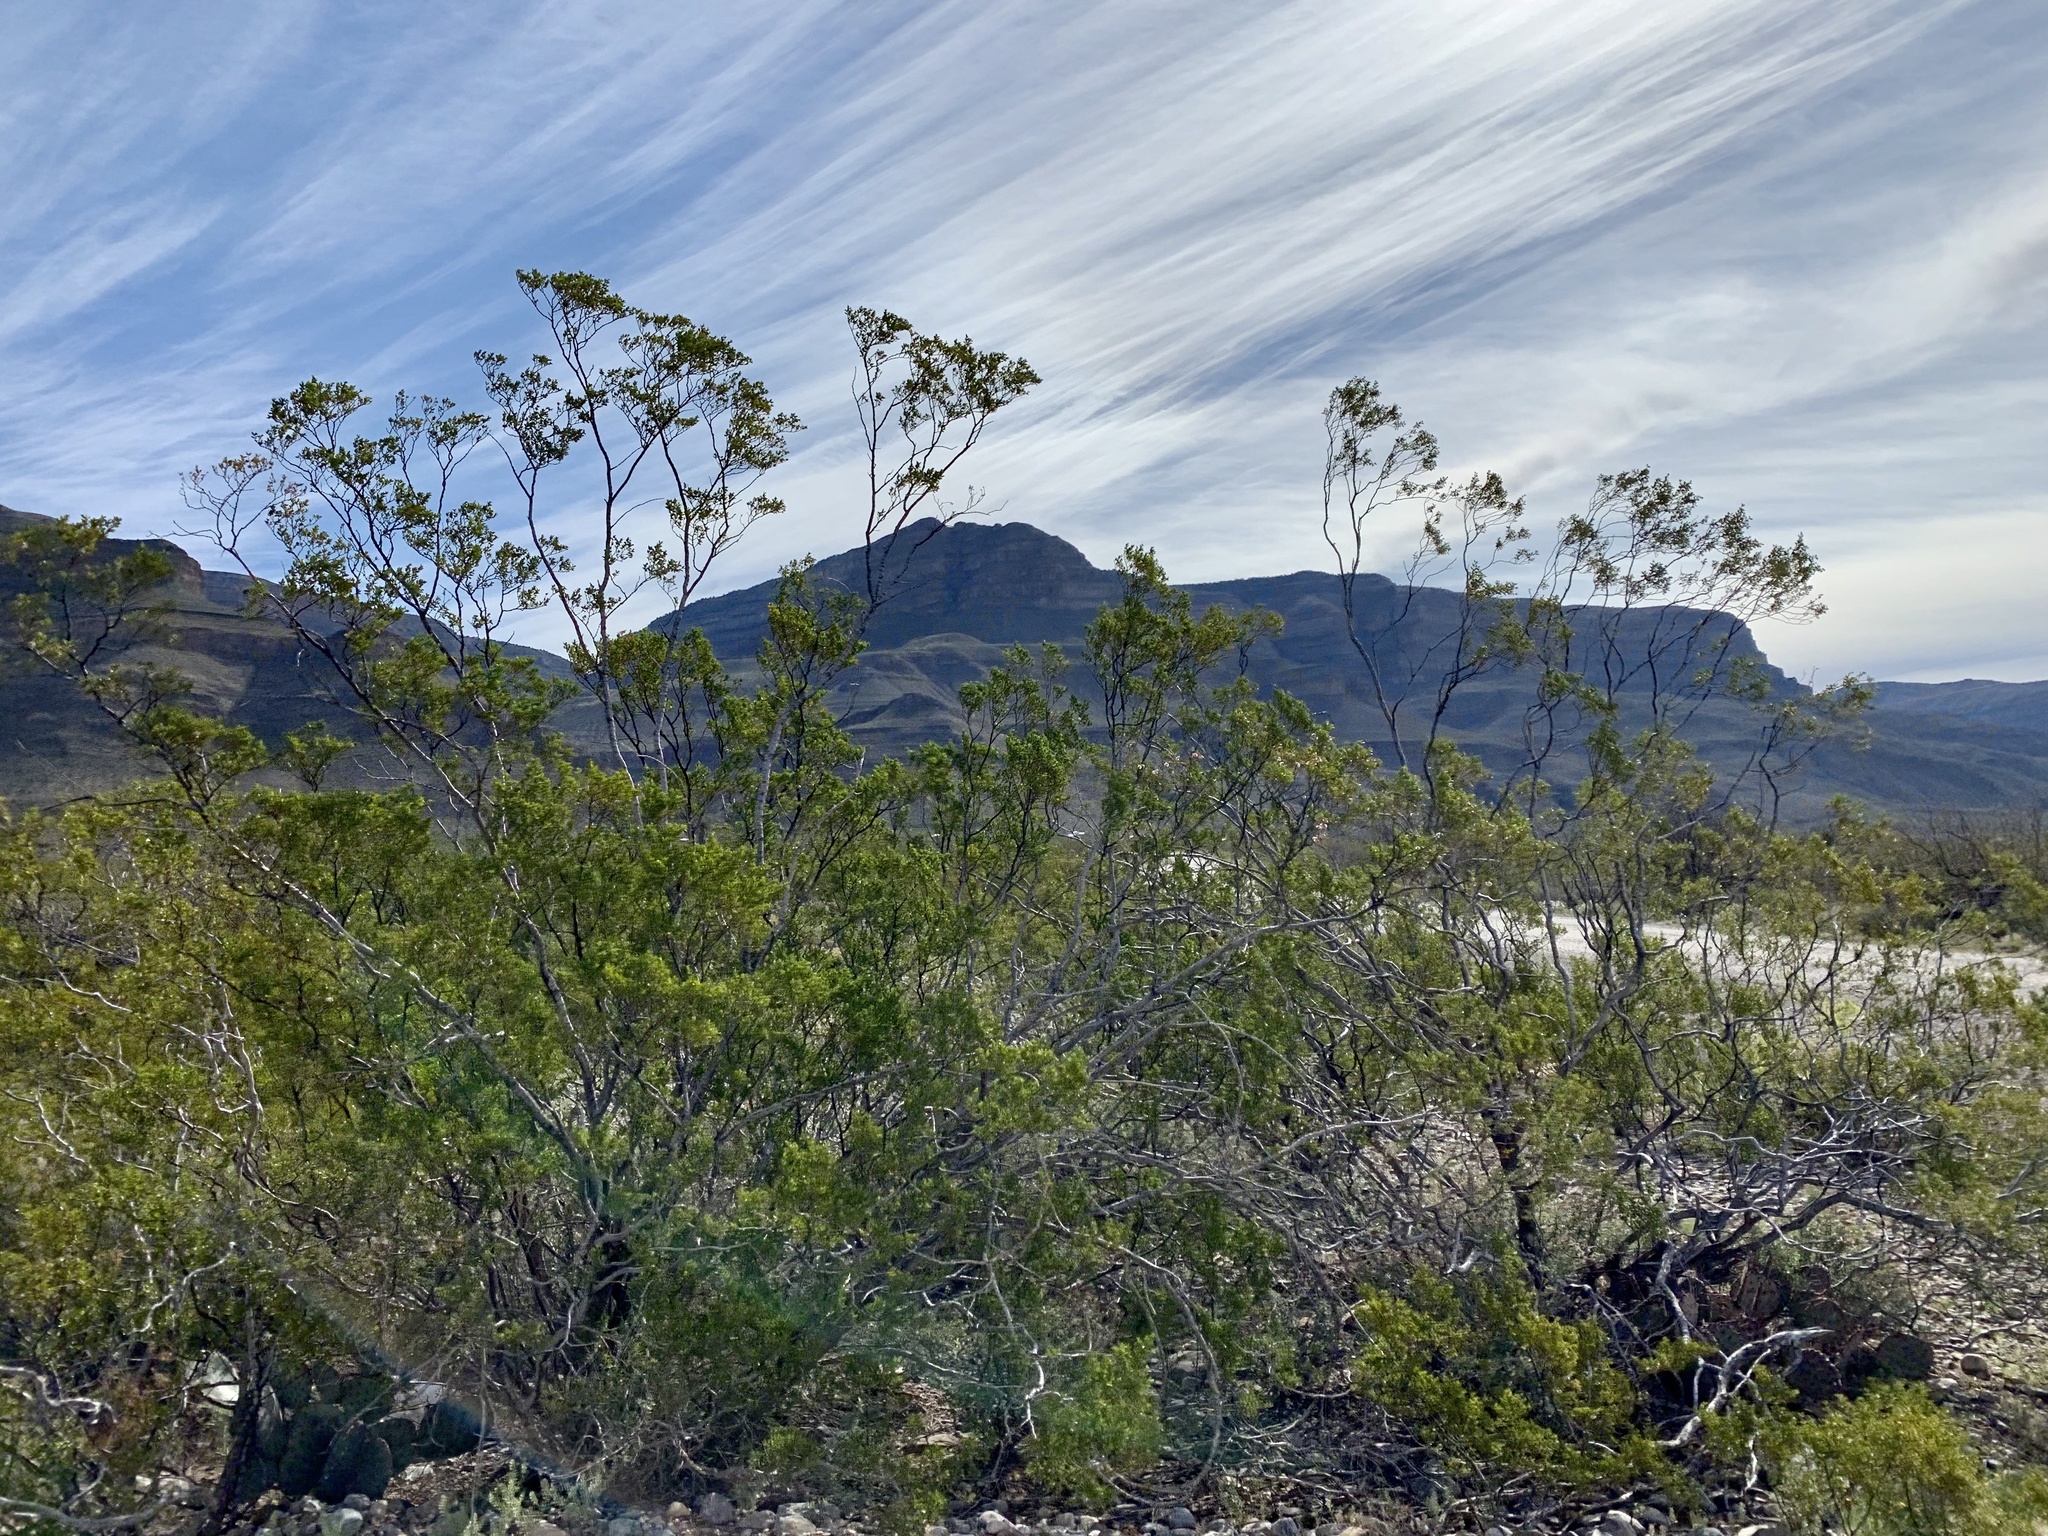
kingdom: Plantae
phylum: Tracheophyta
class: Magnoliopsida
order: Zygophyllales
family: Zygophyllaceae
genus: Larrea
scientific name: Larrea tridentata
